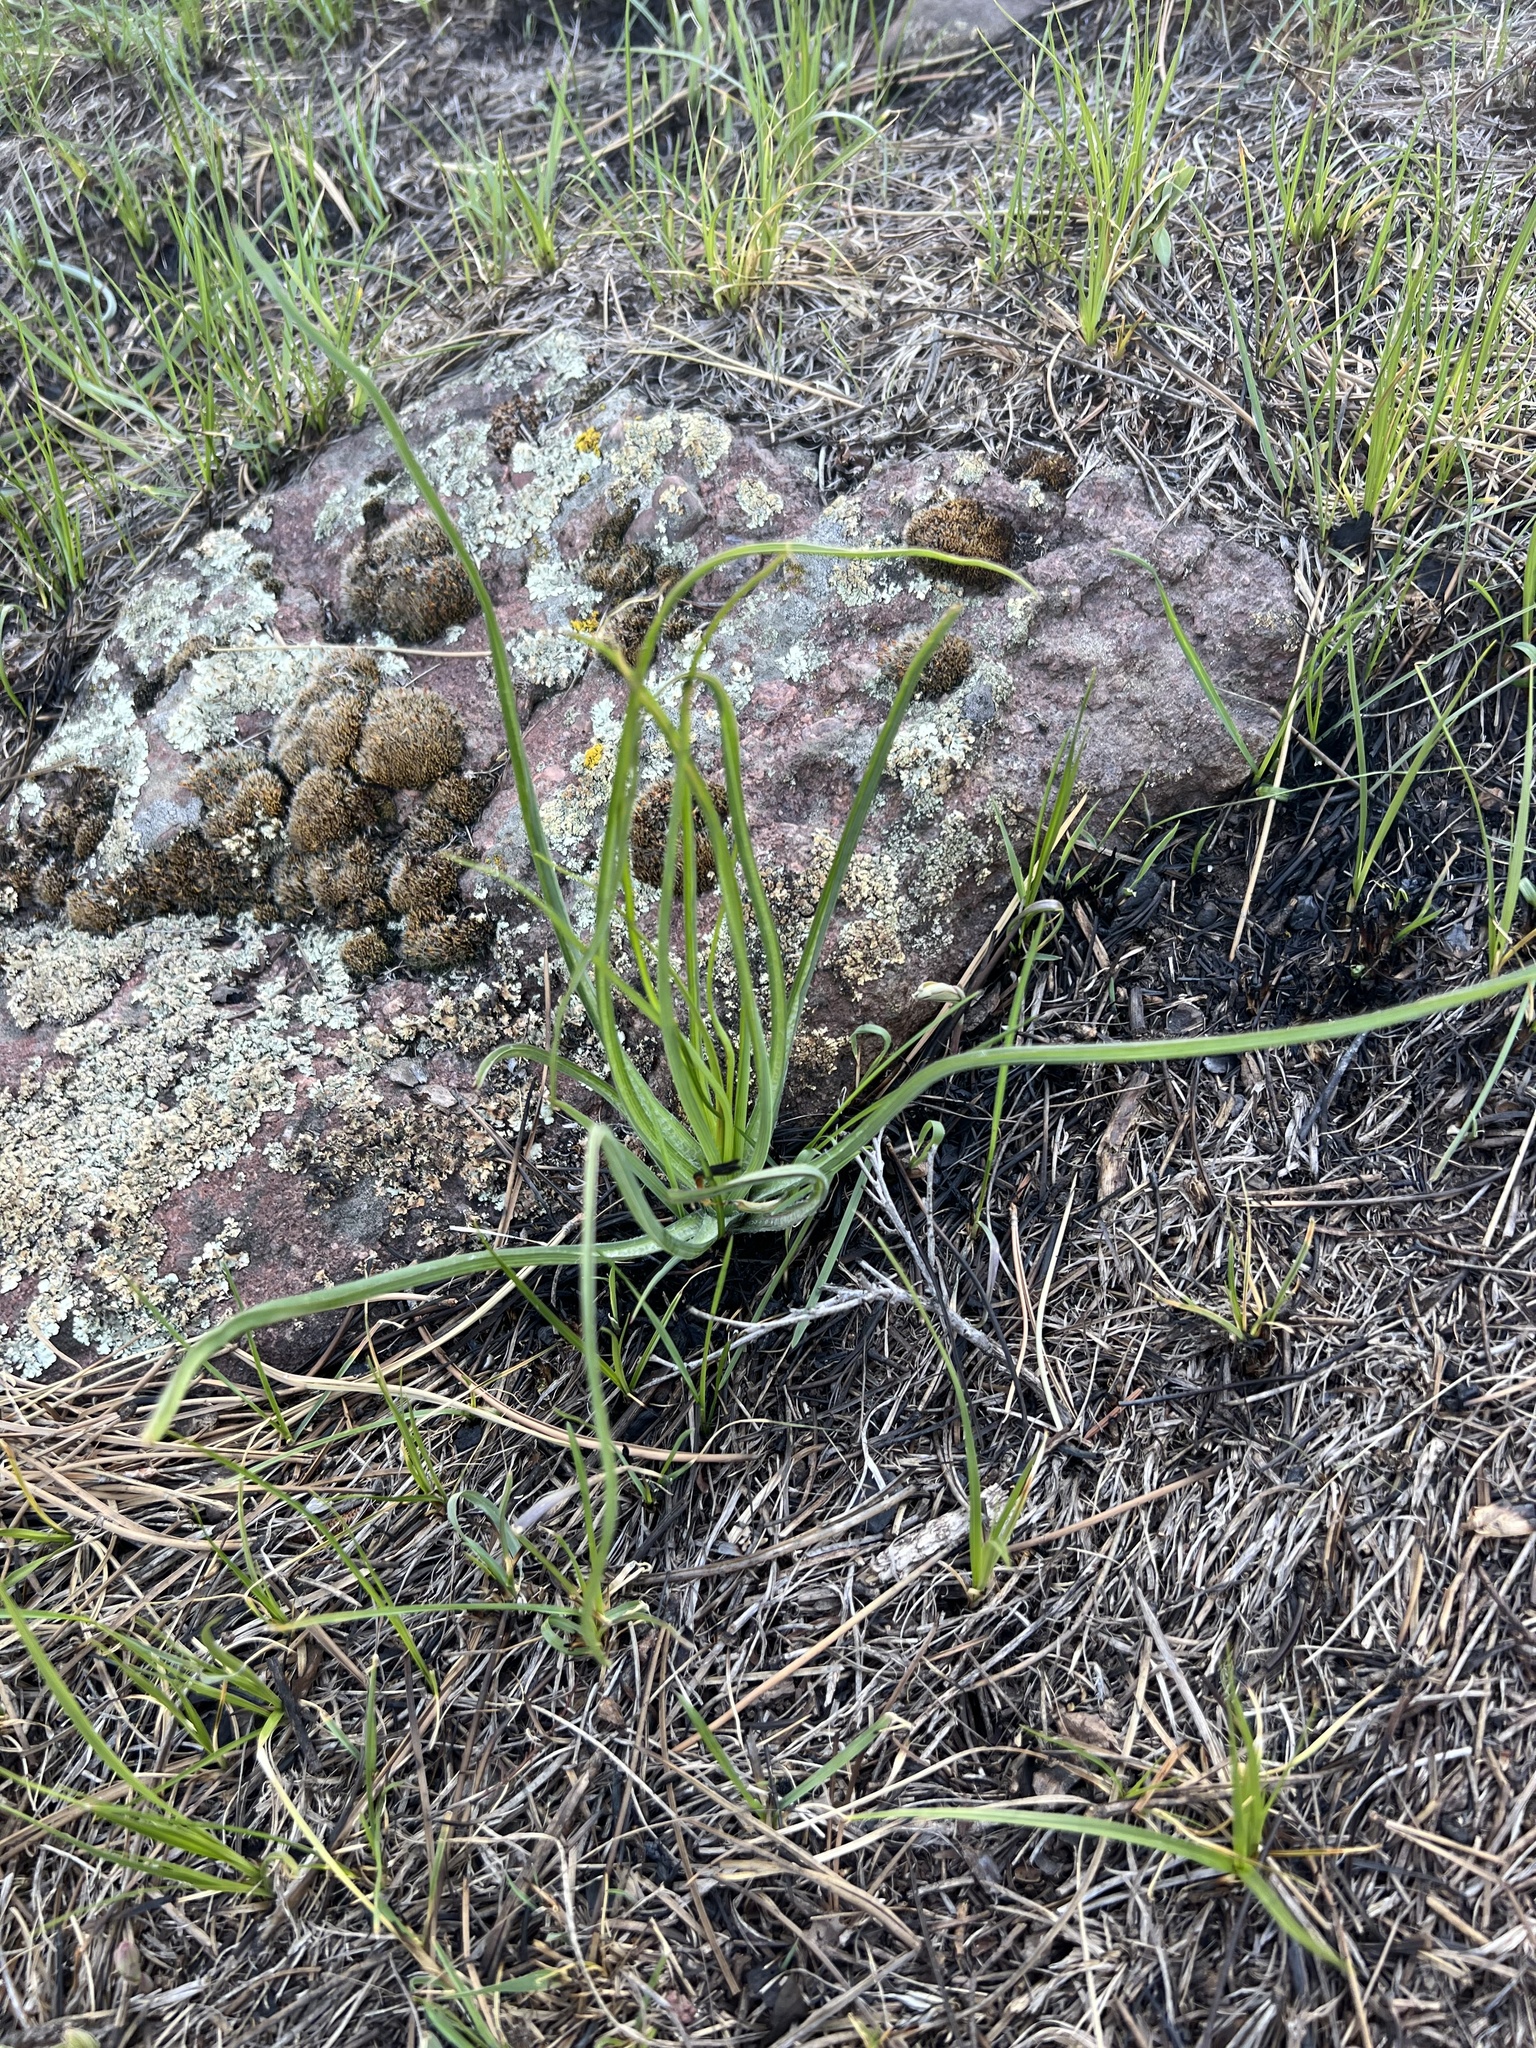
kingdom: Plantae
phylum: Tracheophyta
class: Liliopsida
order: Asparagales
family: Amaryllidaceae
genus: Allium
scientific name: Allium cernuum
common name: Nodding onion
